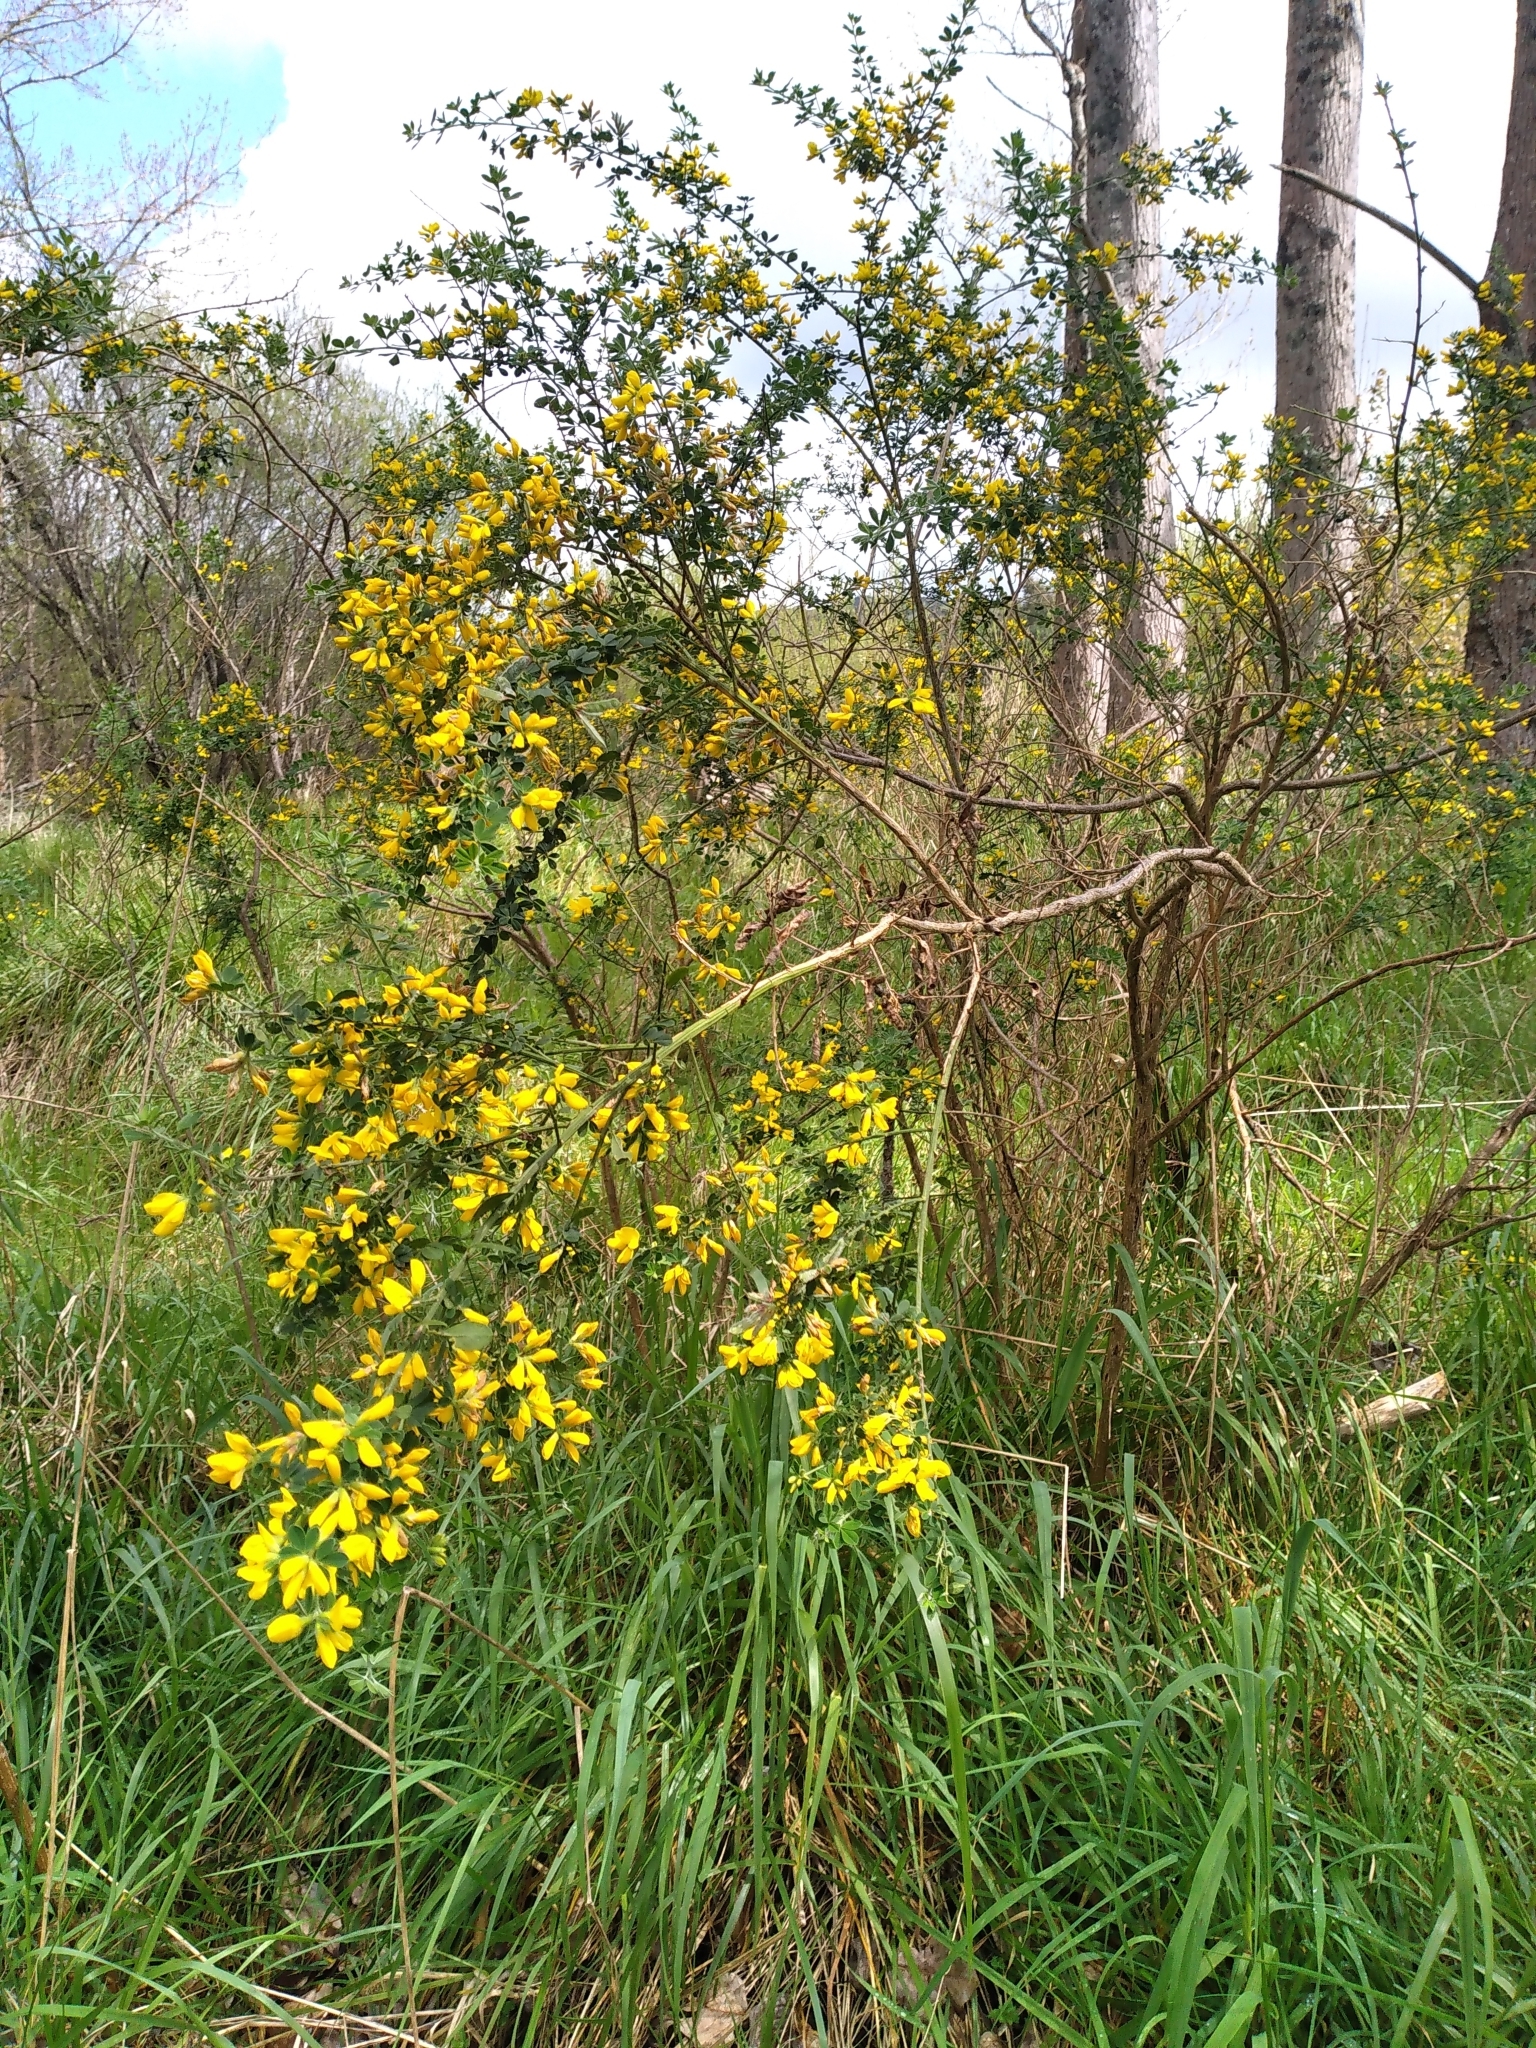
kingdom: Plantae
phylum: Tracheophyta
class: Magnoliopsida
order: Fabales
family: Fabaceae
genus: Genista
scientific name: Genista monspessulana
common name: Montpellier broom
